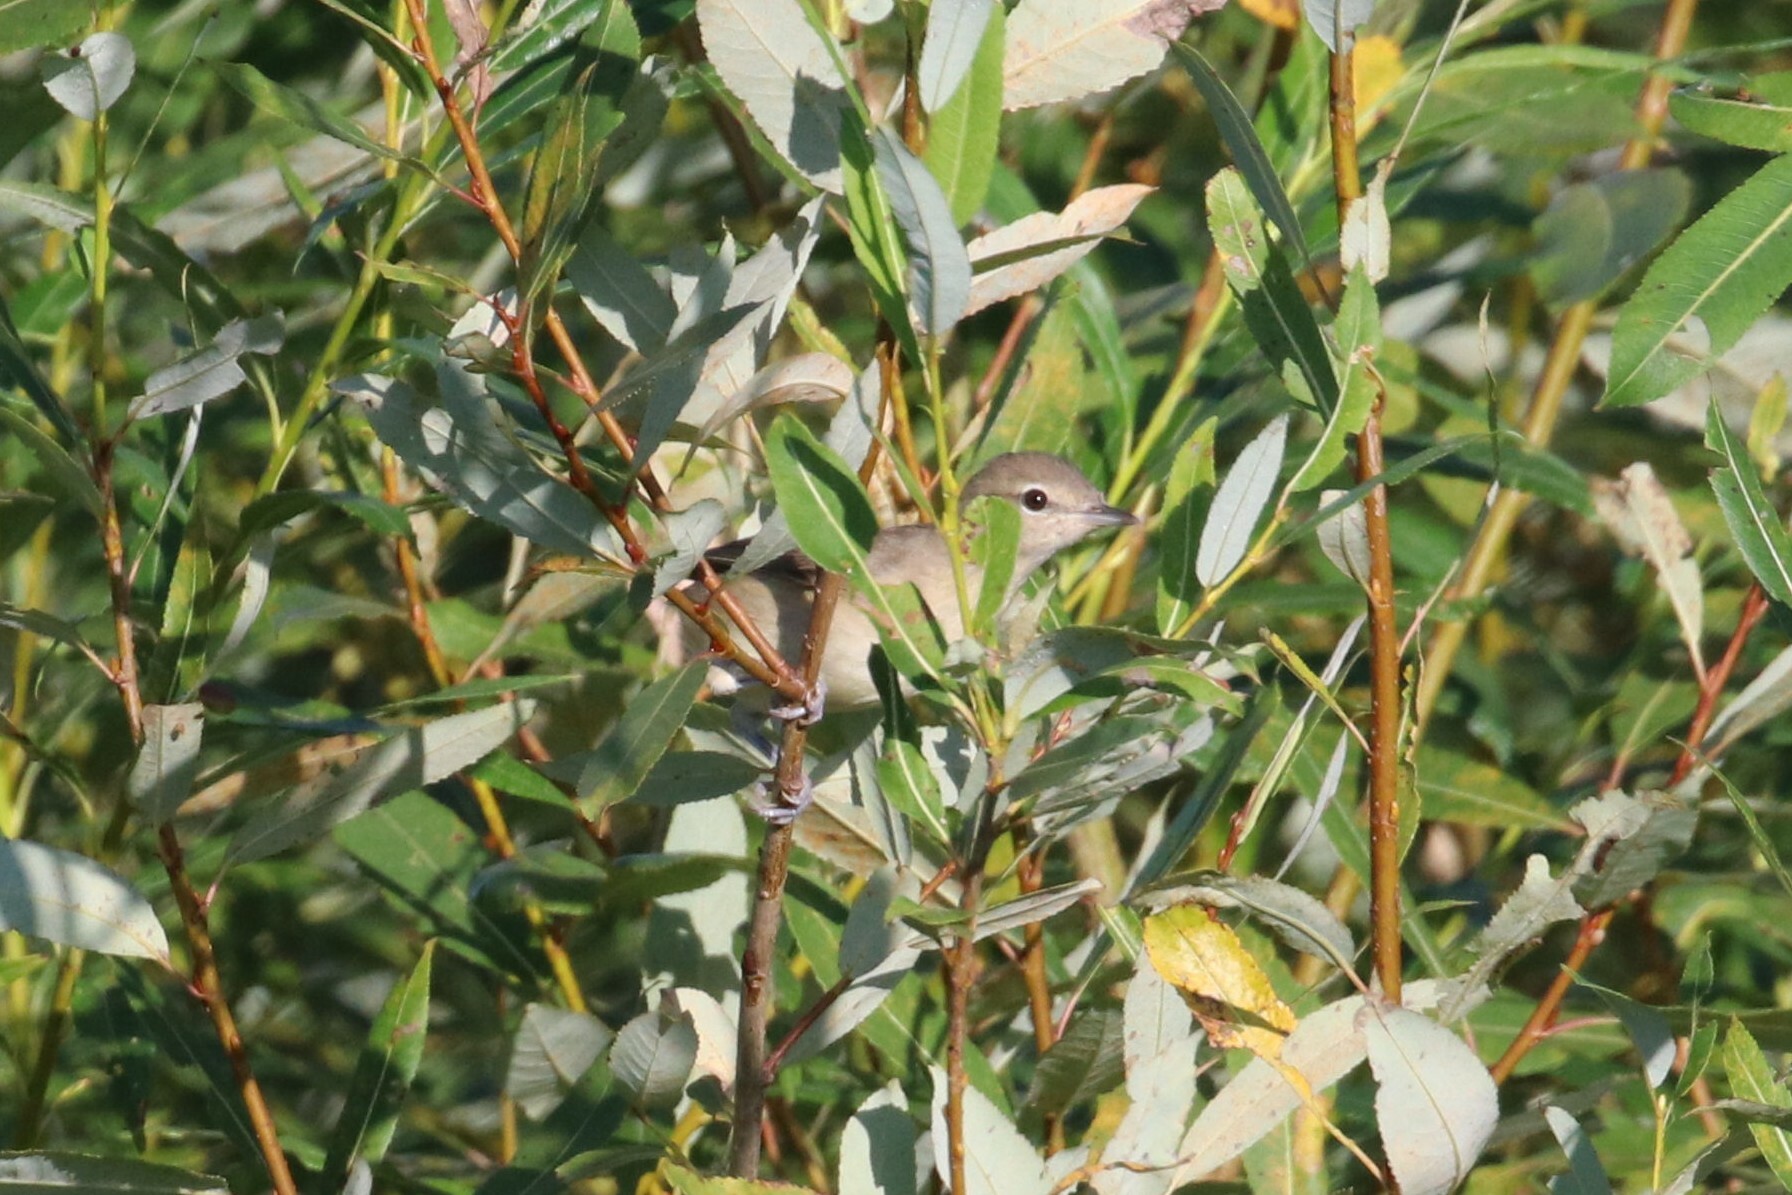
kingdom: Animalia
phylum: Chordata
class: Aves
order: Passeriformes
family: Sylviidae
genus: Sylvia
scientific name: Sylvia borin
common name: Garden warbler
